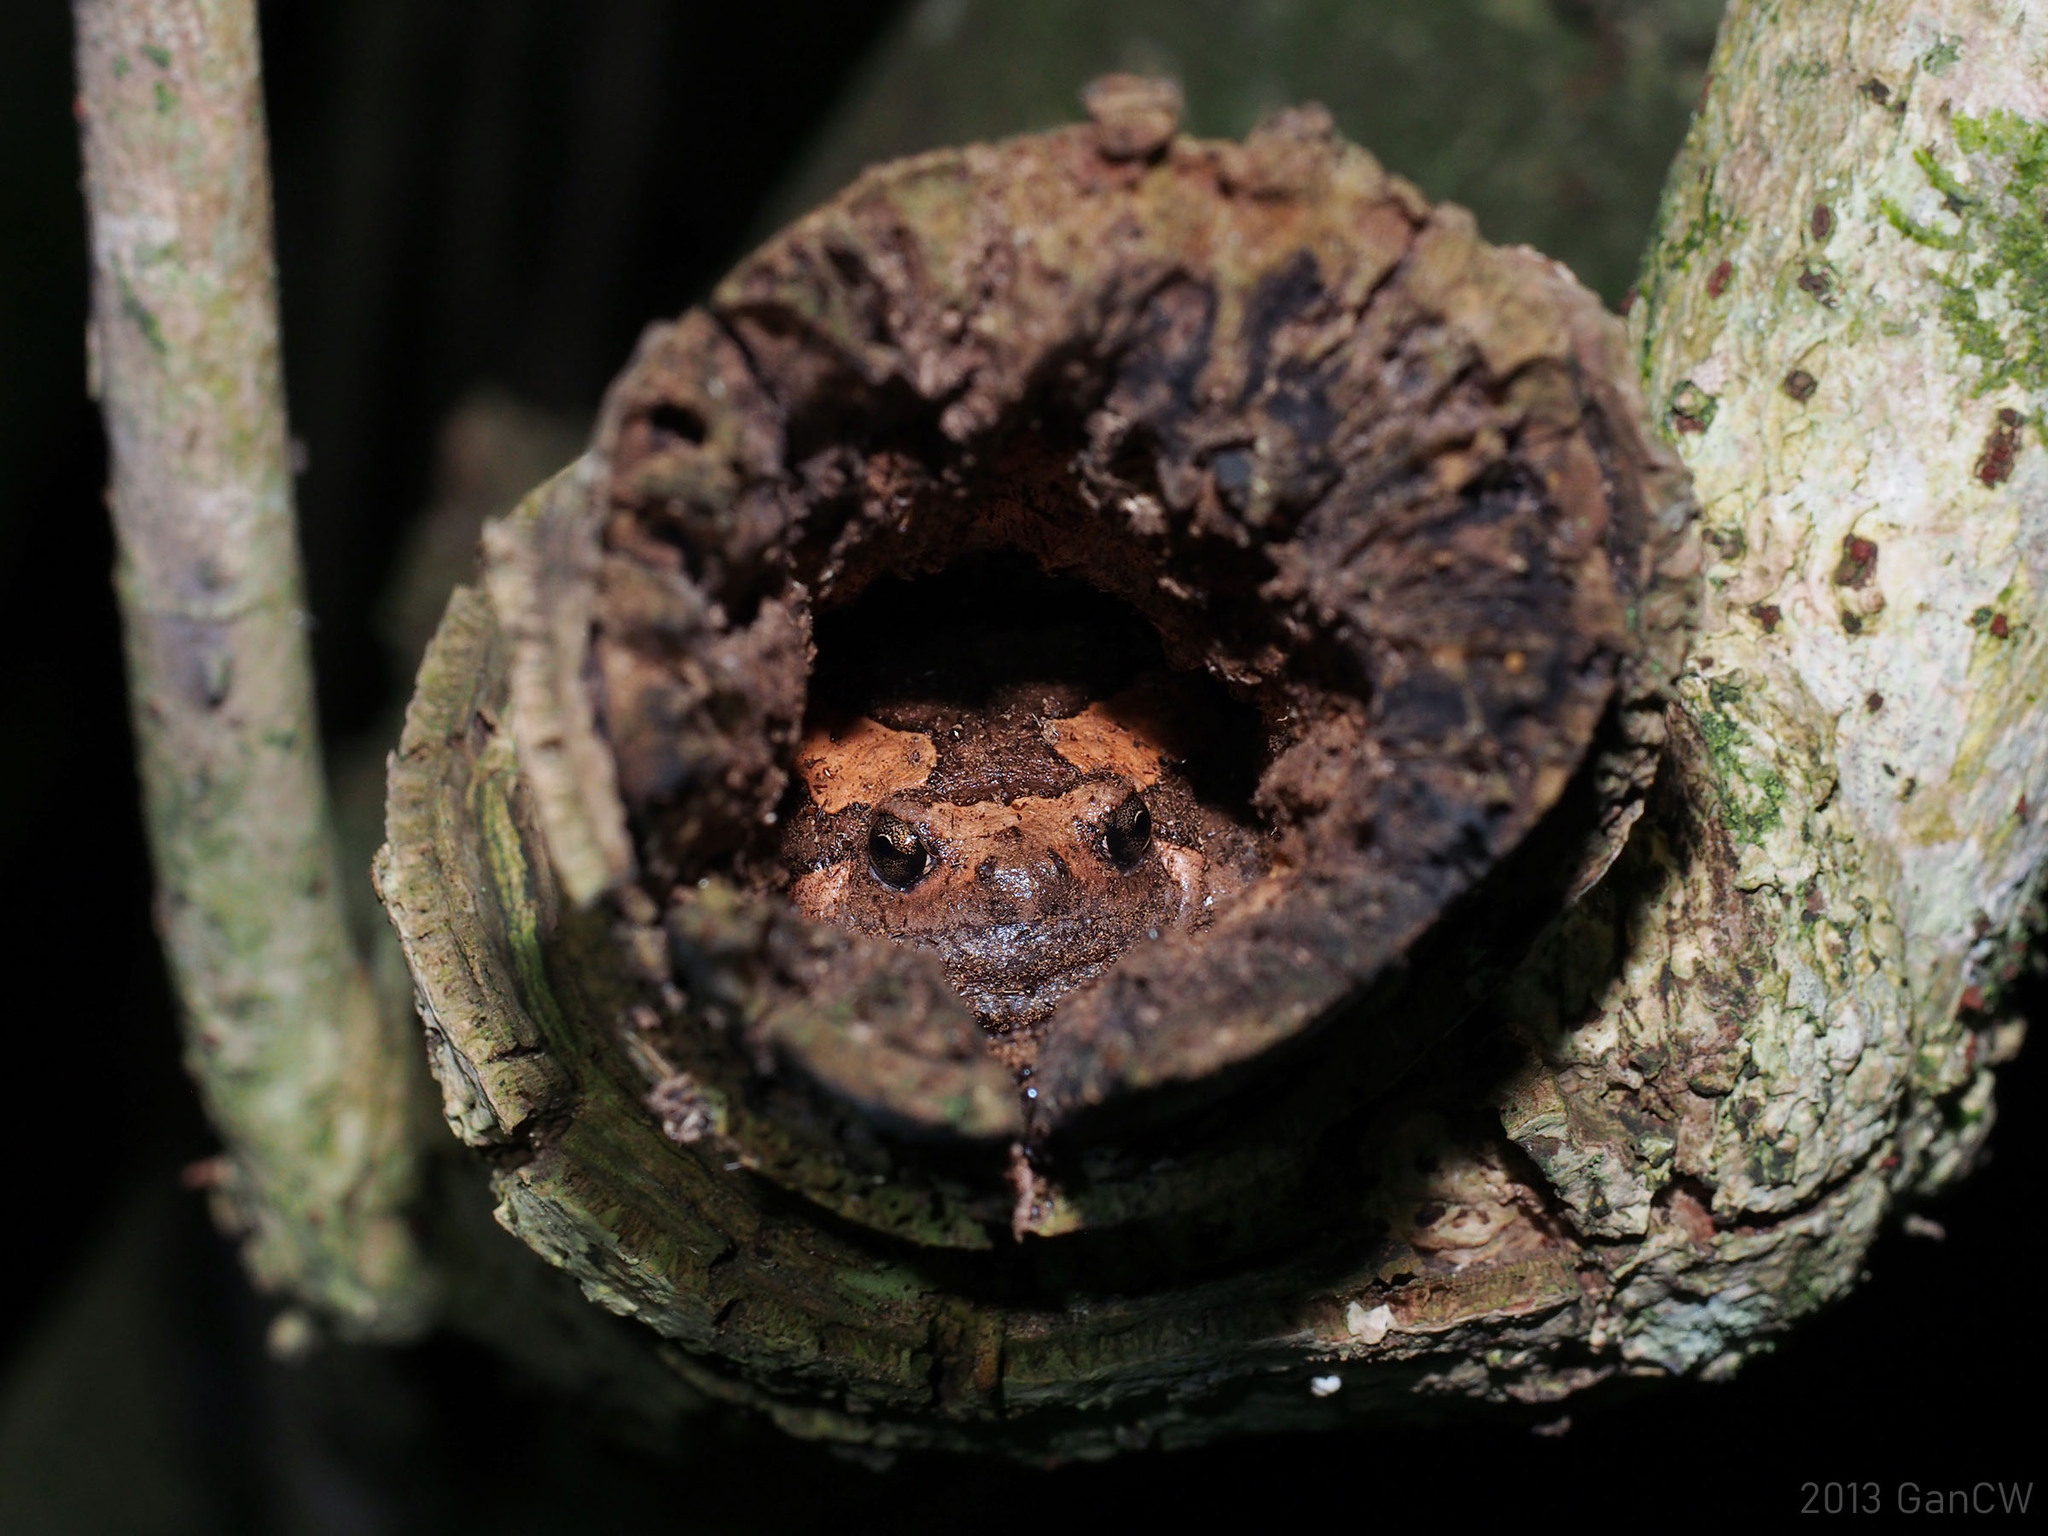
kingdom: Animalia
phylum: Chordata
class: Amphibia
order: Anura
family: Microhylidae
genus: Kaloula
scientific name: Kaloula pulchra
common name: Common,banded bullfrog
